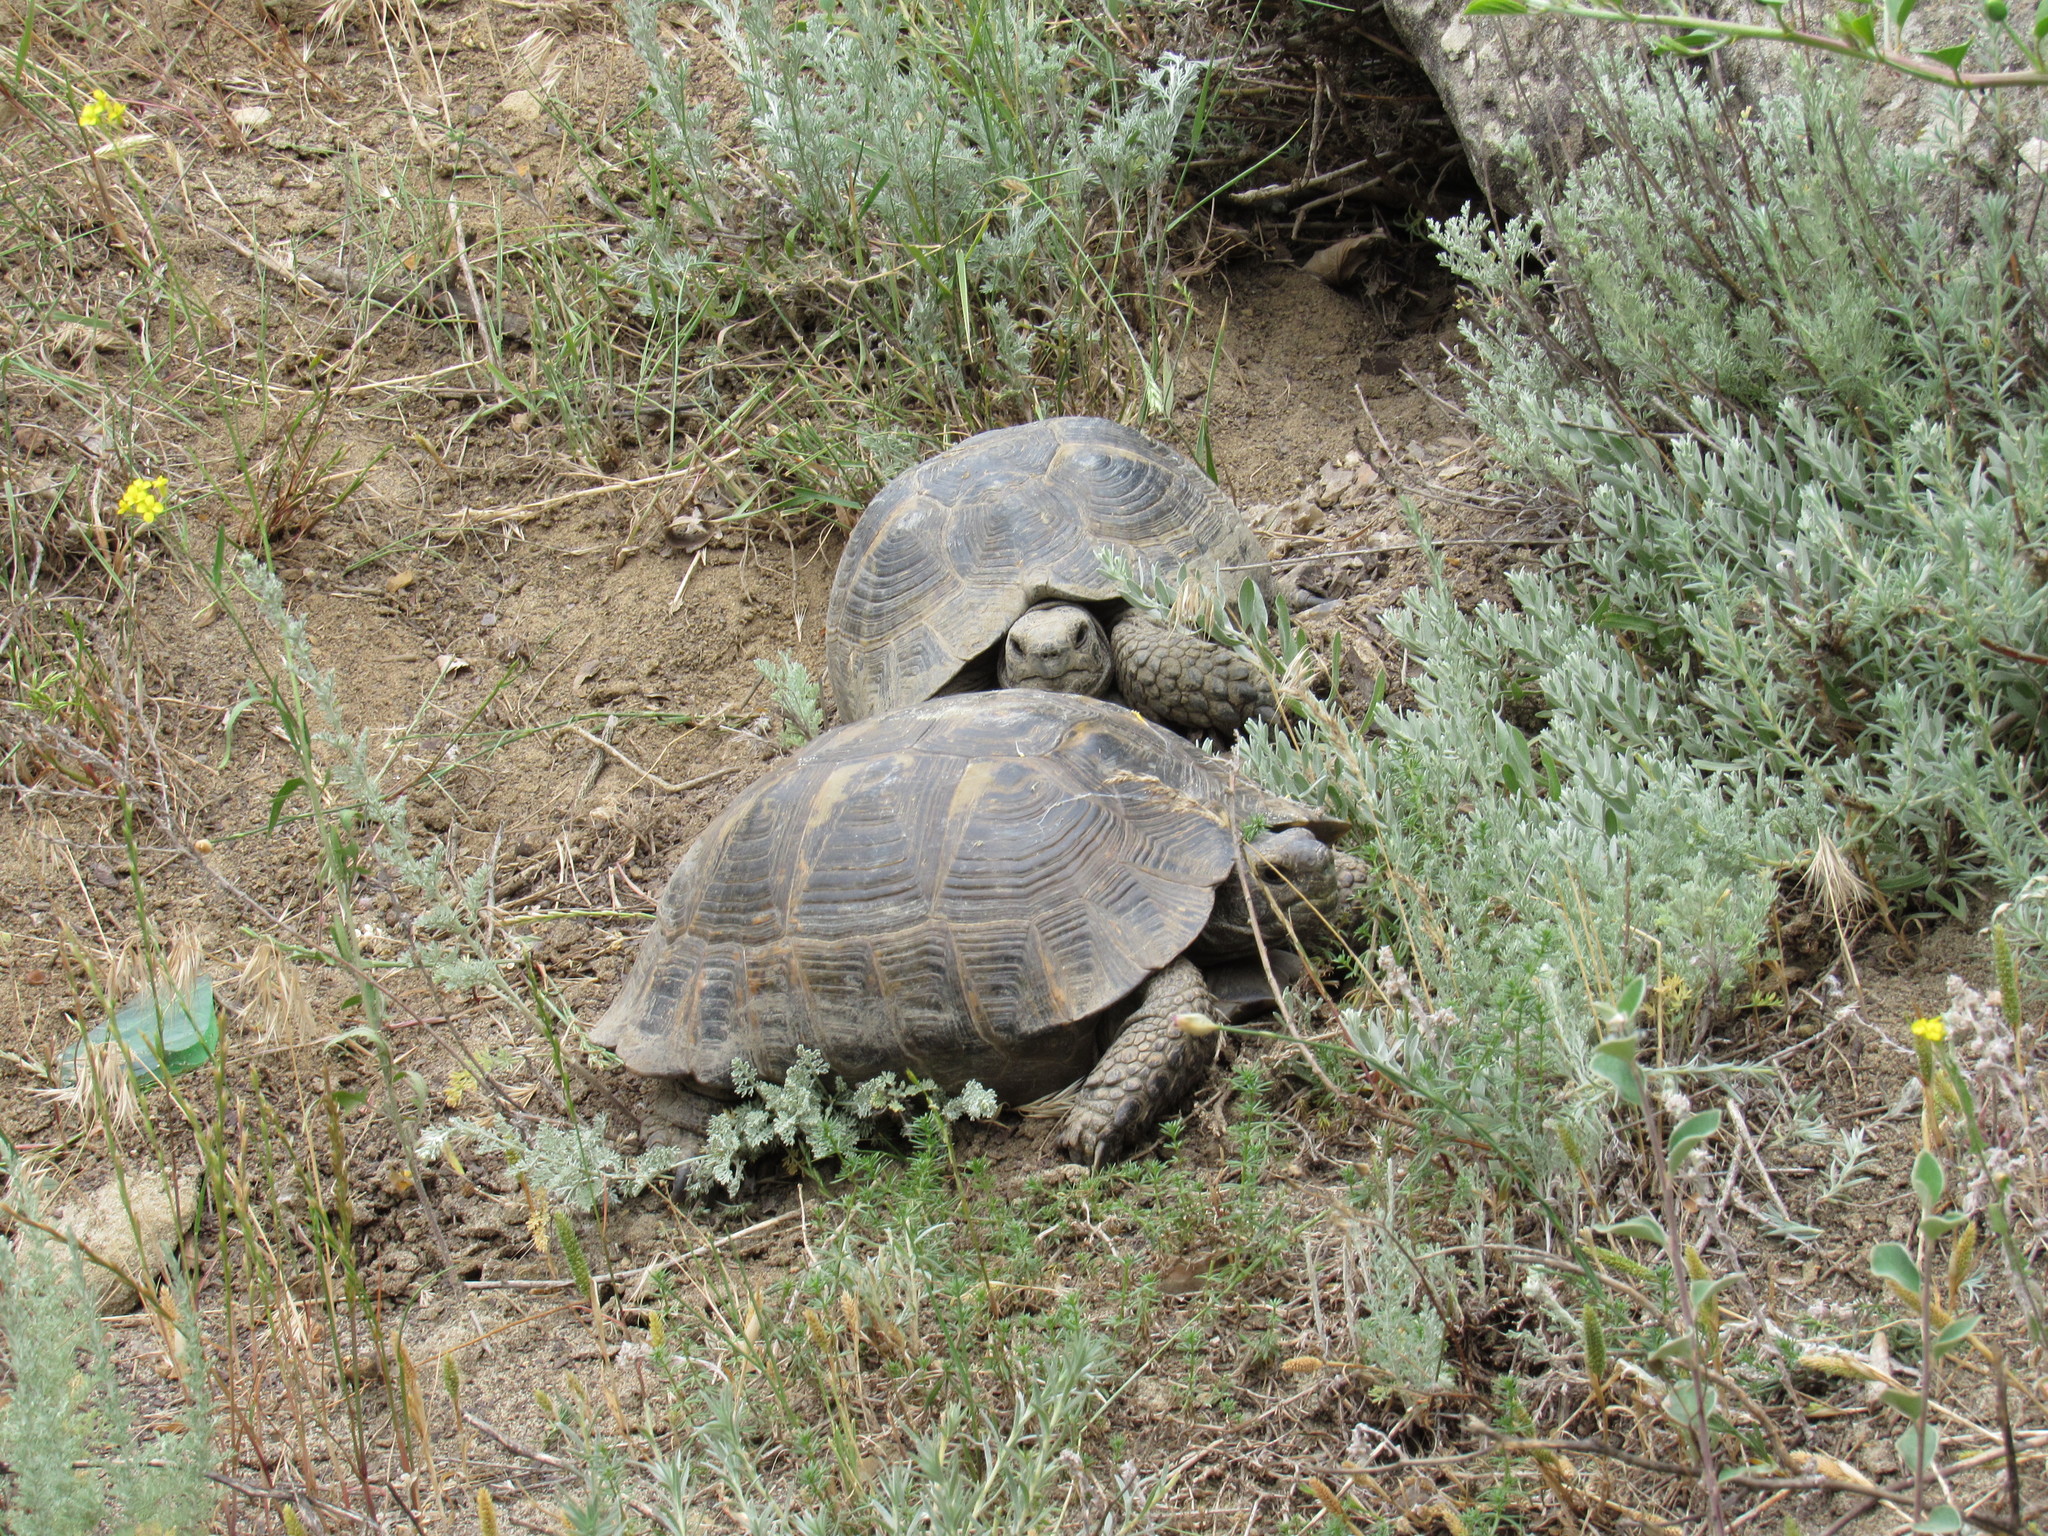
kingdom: Animalia
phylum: Chordata
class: Testudines
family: Testudinidae
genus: Testudo
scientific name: Testudo graeca
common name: Common tortoise
